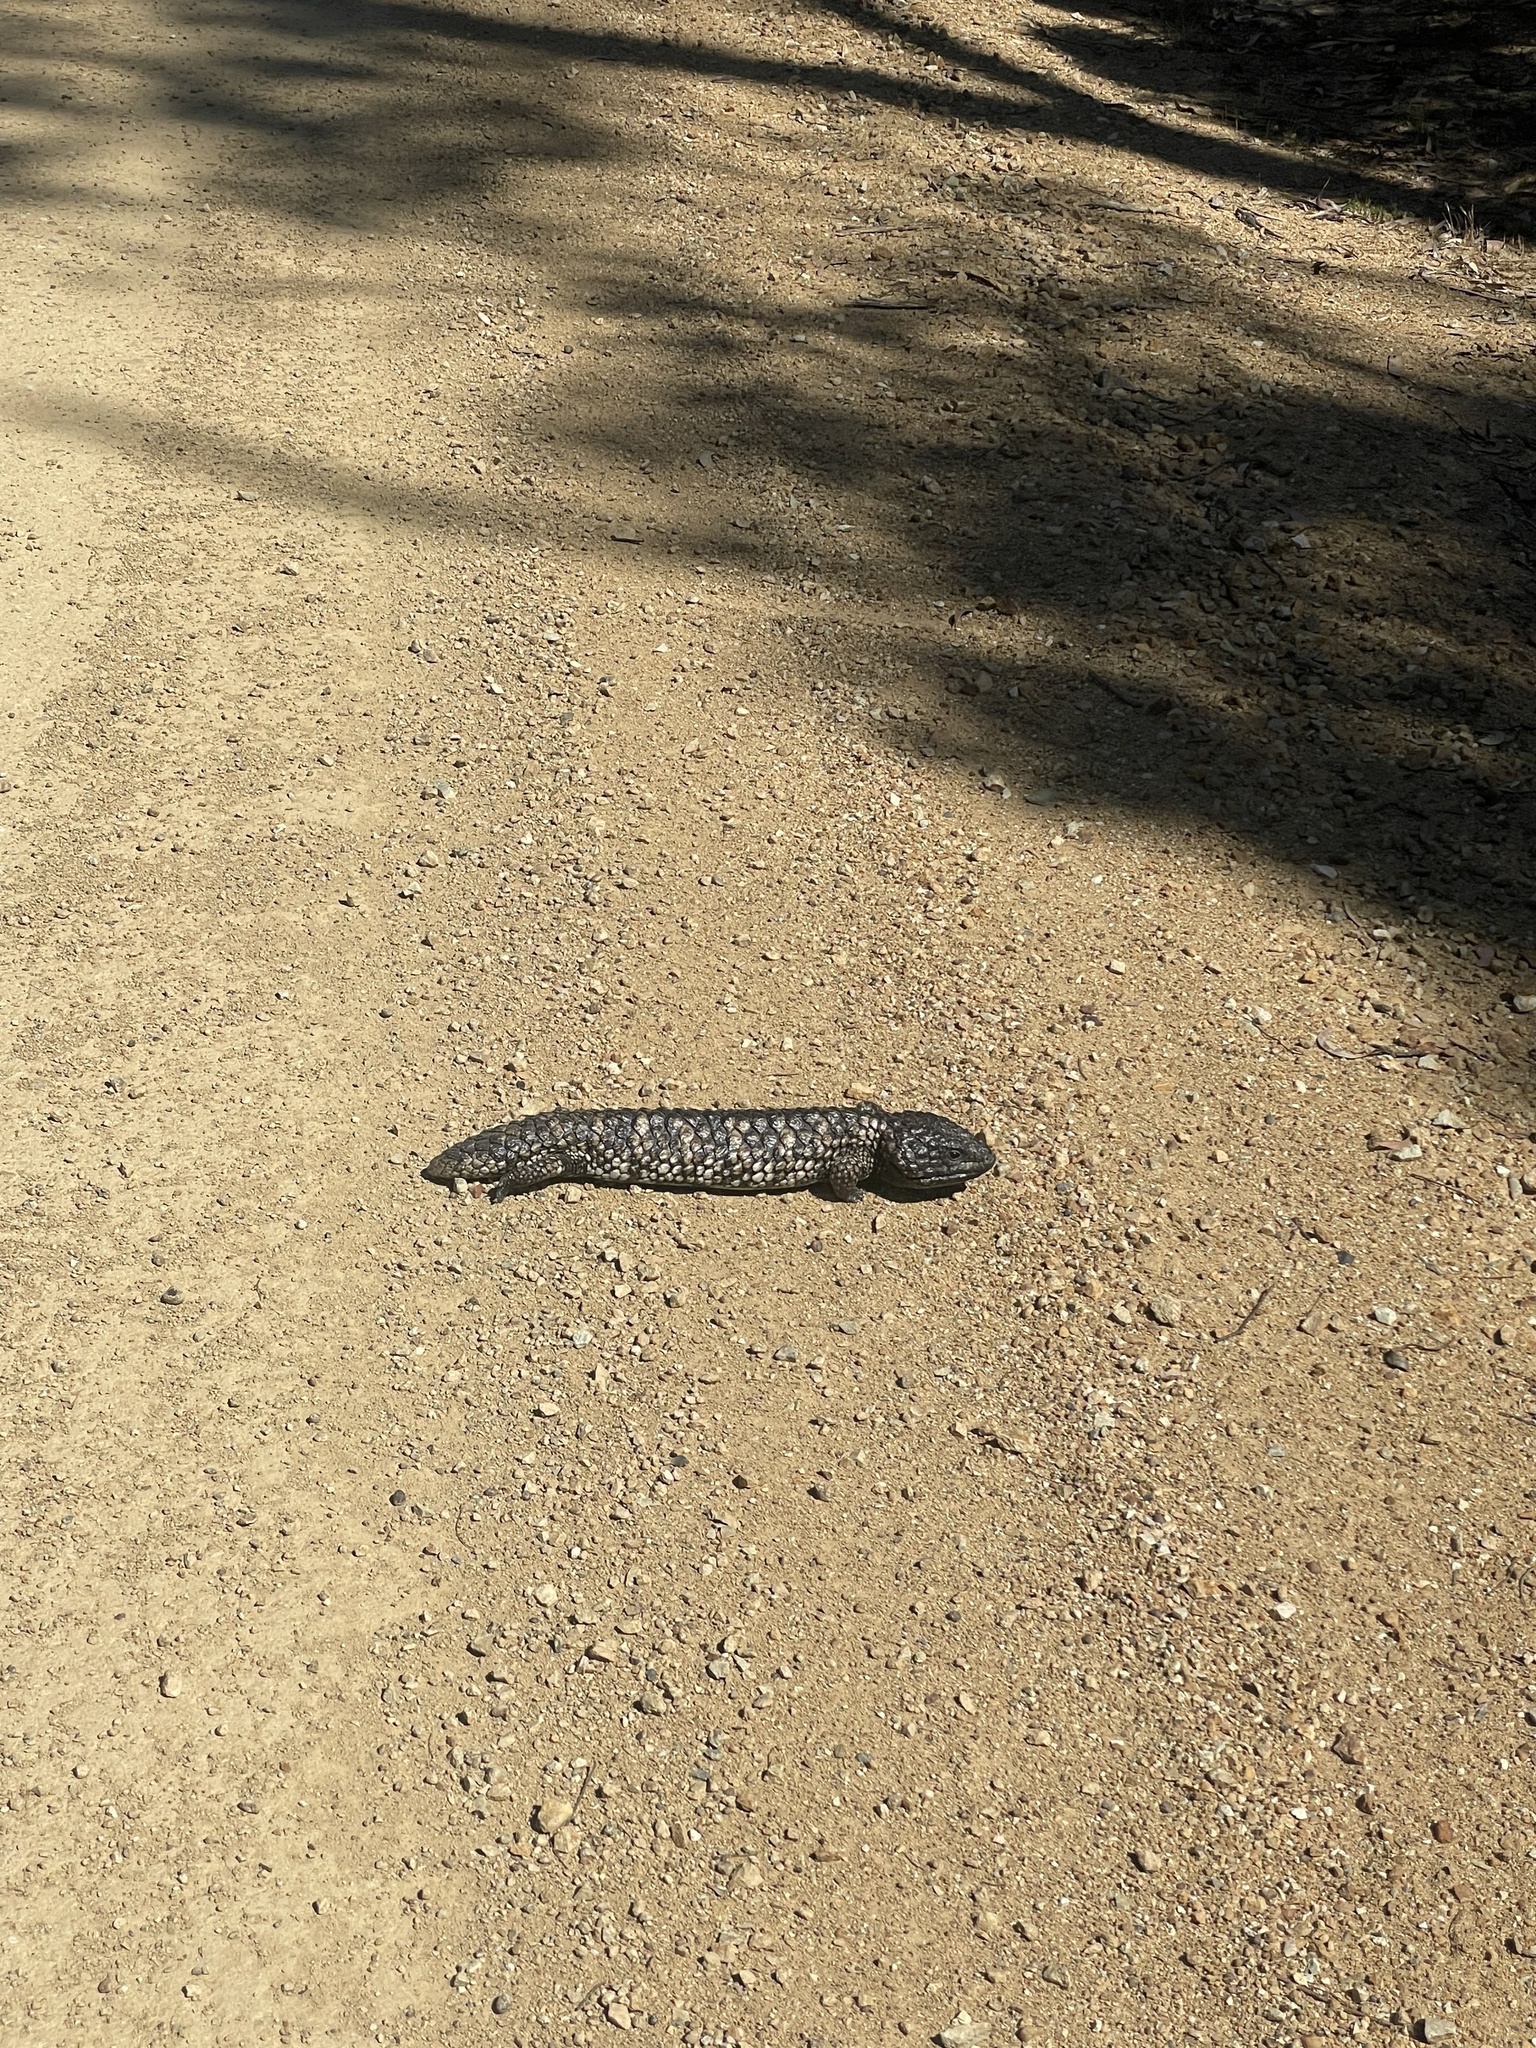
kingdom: Animalia
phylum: Chordata
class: Squamata
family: Scincidae
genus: Tiliqua
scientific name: Tiliqua rugosa
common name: Pinecone lizard
